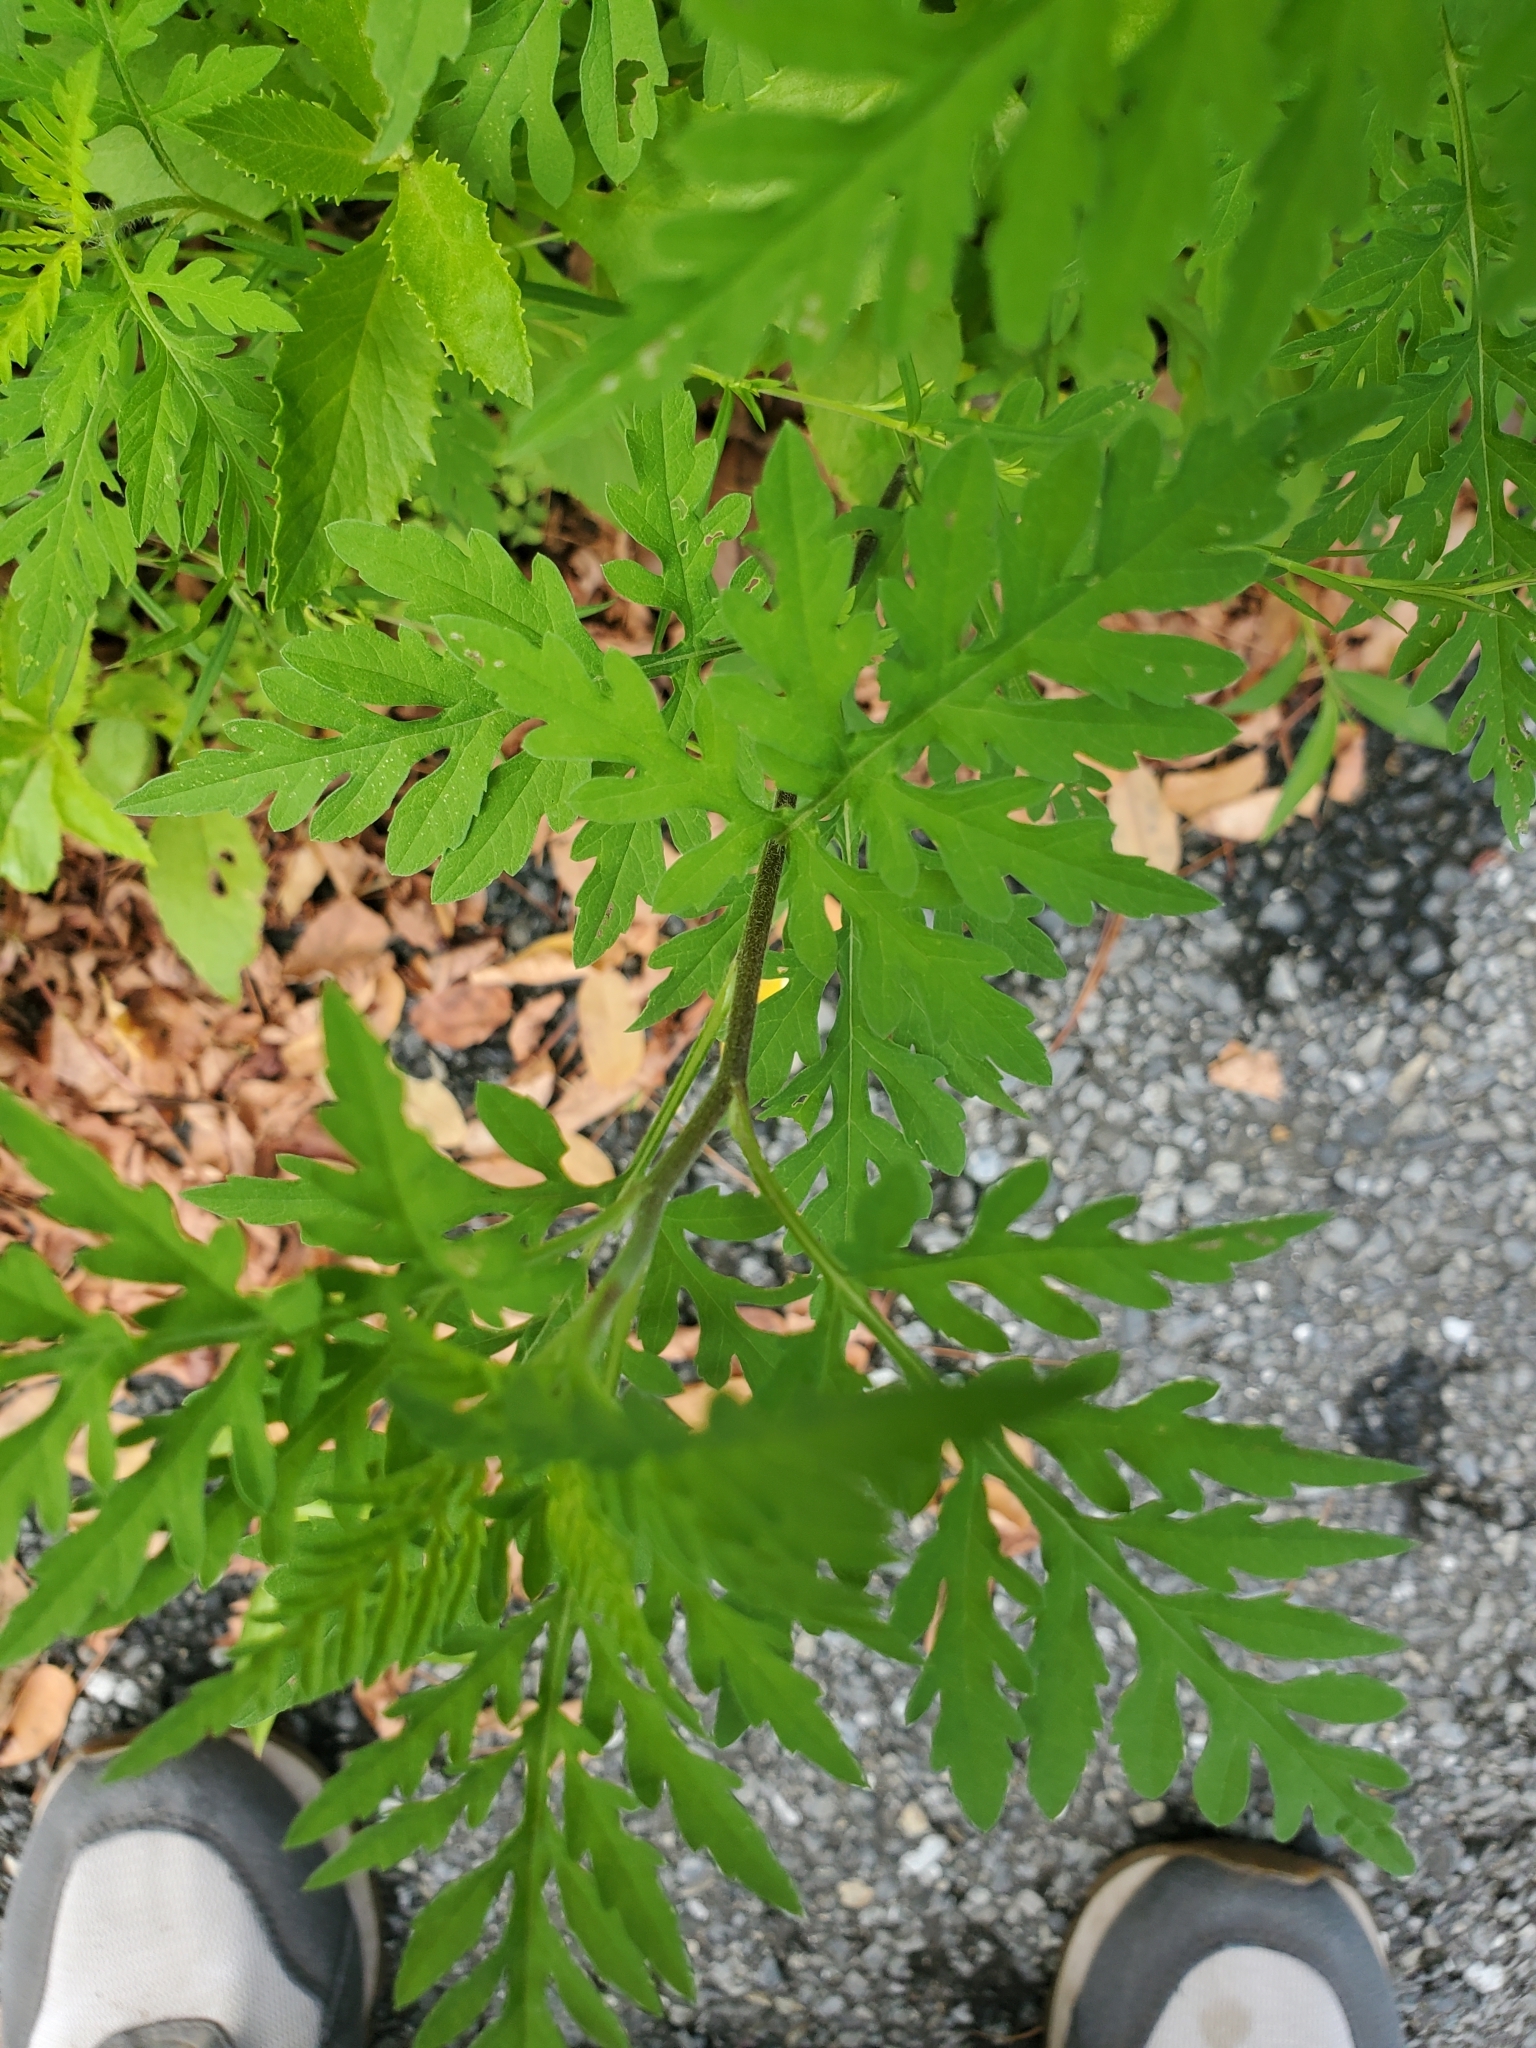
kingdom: Plantae
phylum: Tracheophyta
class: Magnoliopsida
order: Asterales
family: Asteraceae
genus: Ambrosia
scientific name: Ambrosia artemisiifolia
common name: Annual ragweed
